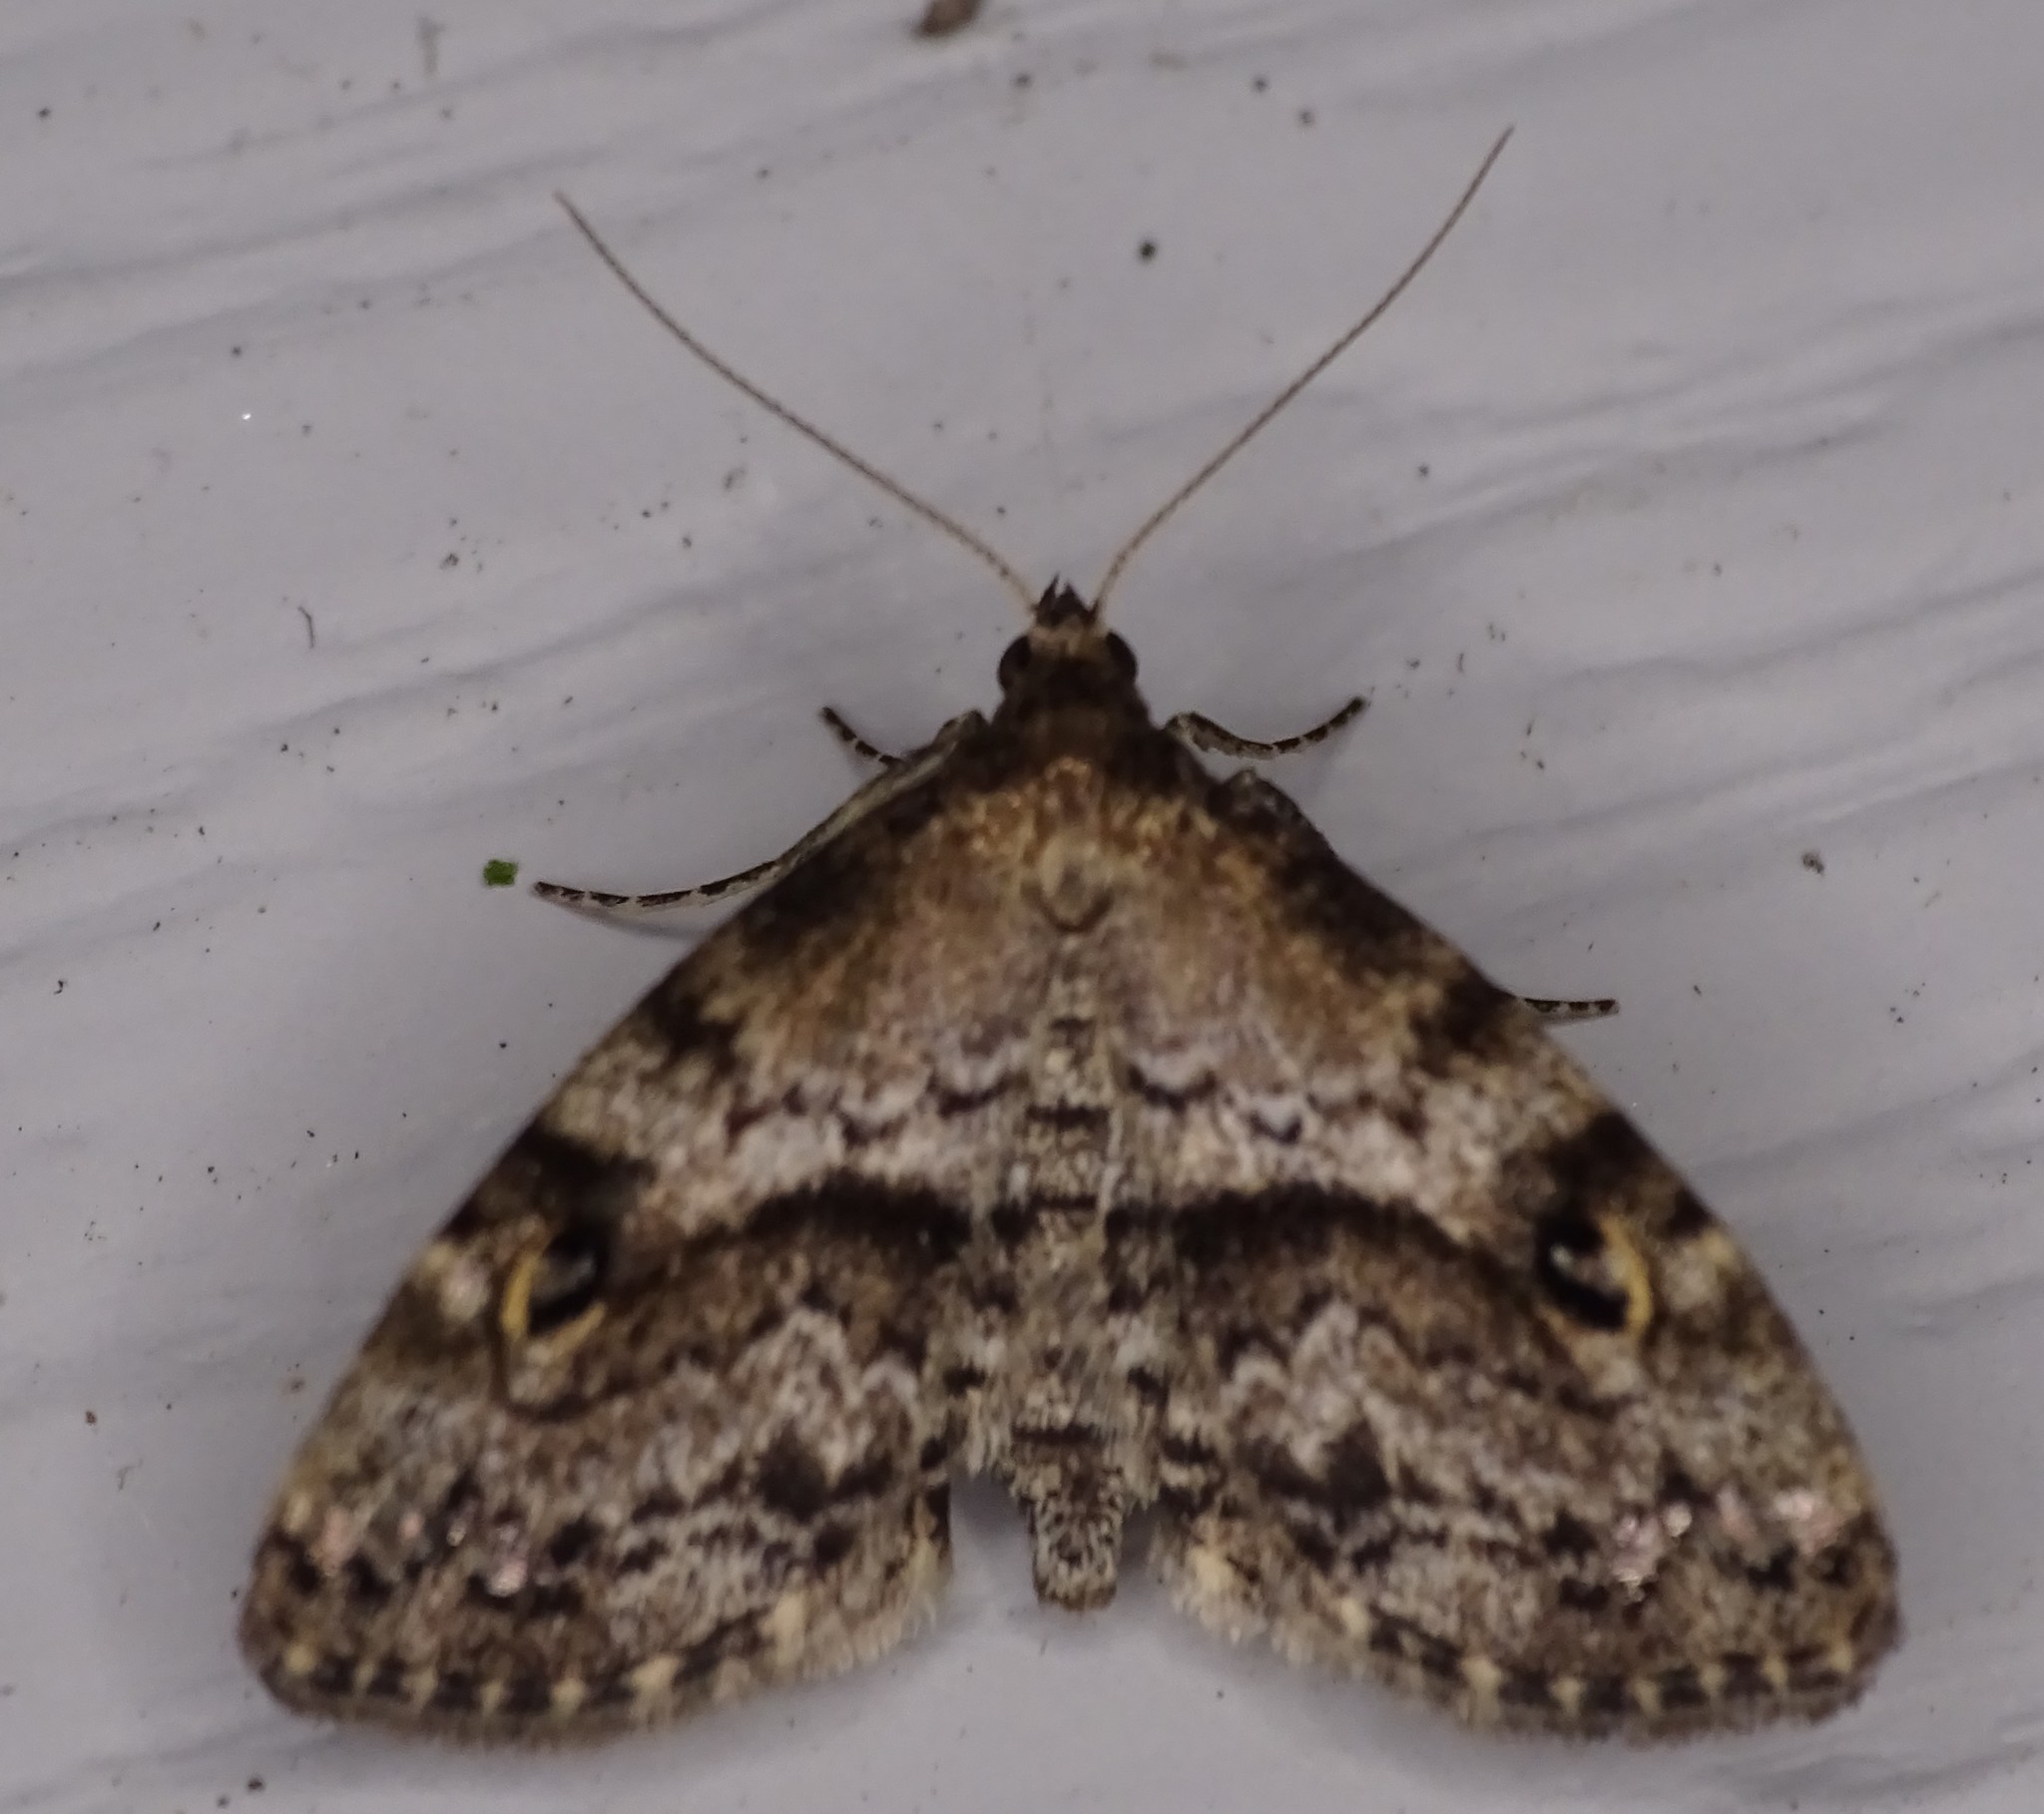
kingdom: Animalia
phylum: Arthropoda
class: Insecta
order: Lepidoptera
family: Erebidae
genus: Melanomma
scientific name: Melanomma auricinctaria
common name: Gold-lined melanomma moth
